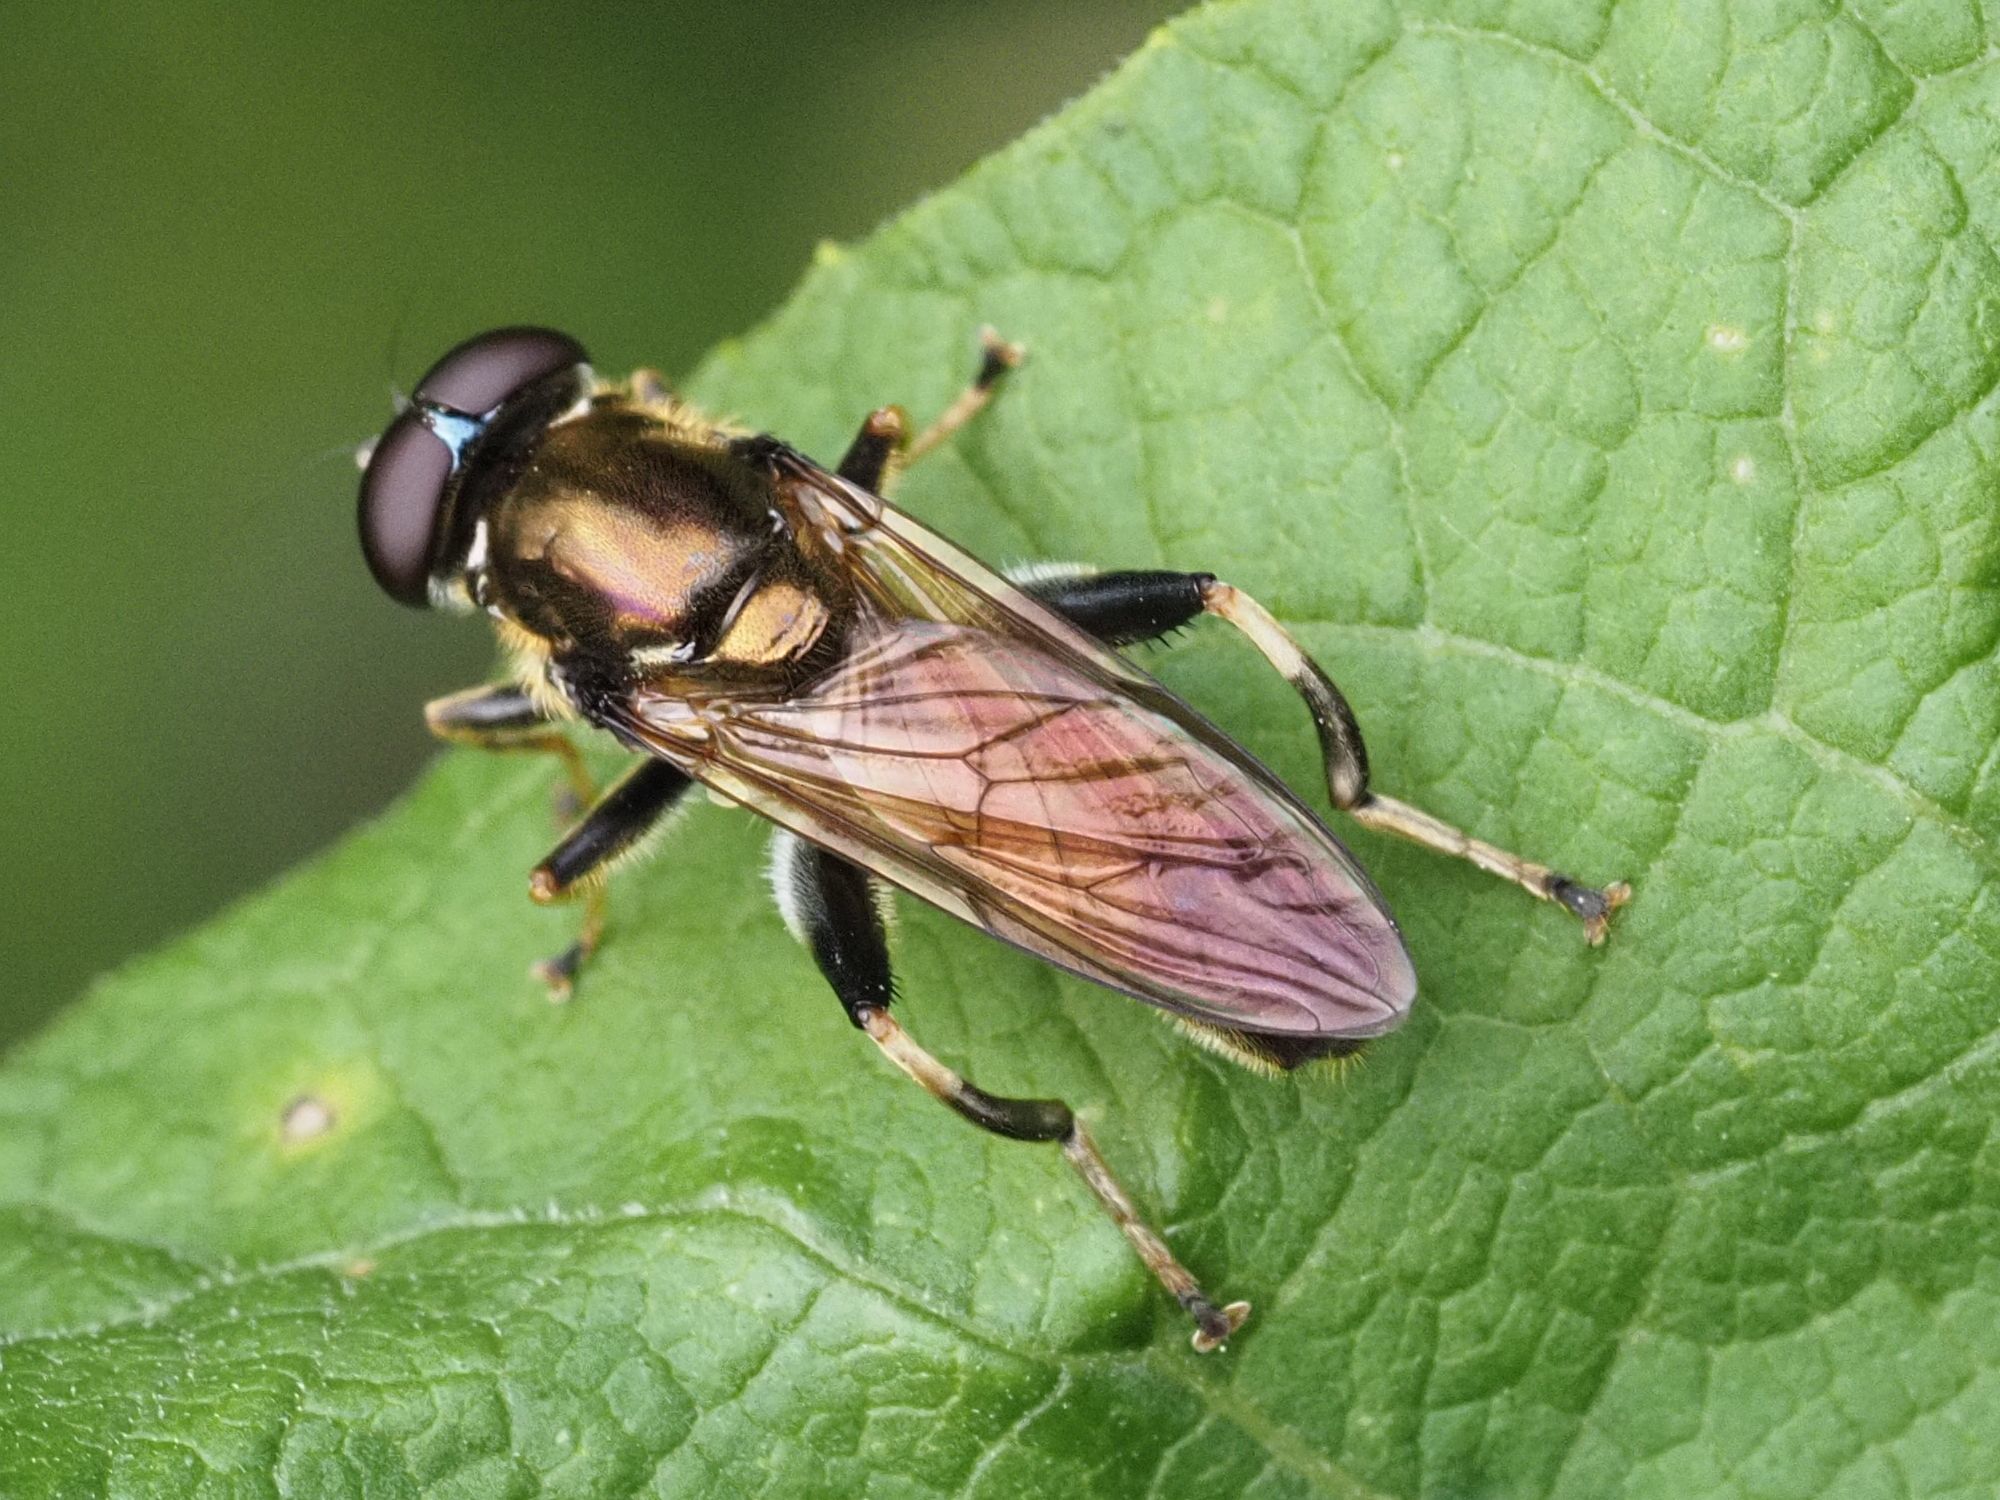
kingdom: Animalia
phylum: Arthropoda
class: Insecta
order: Diptera
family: Syrphidae
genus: Xylota
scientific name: Xylota segnis
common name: Brown-toed forest fly
